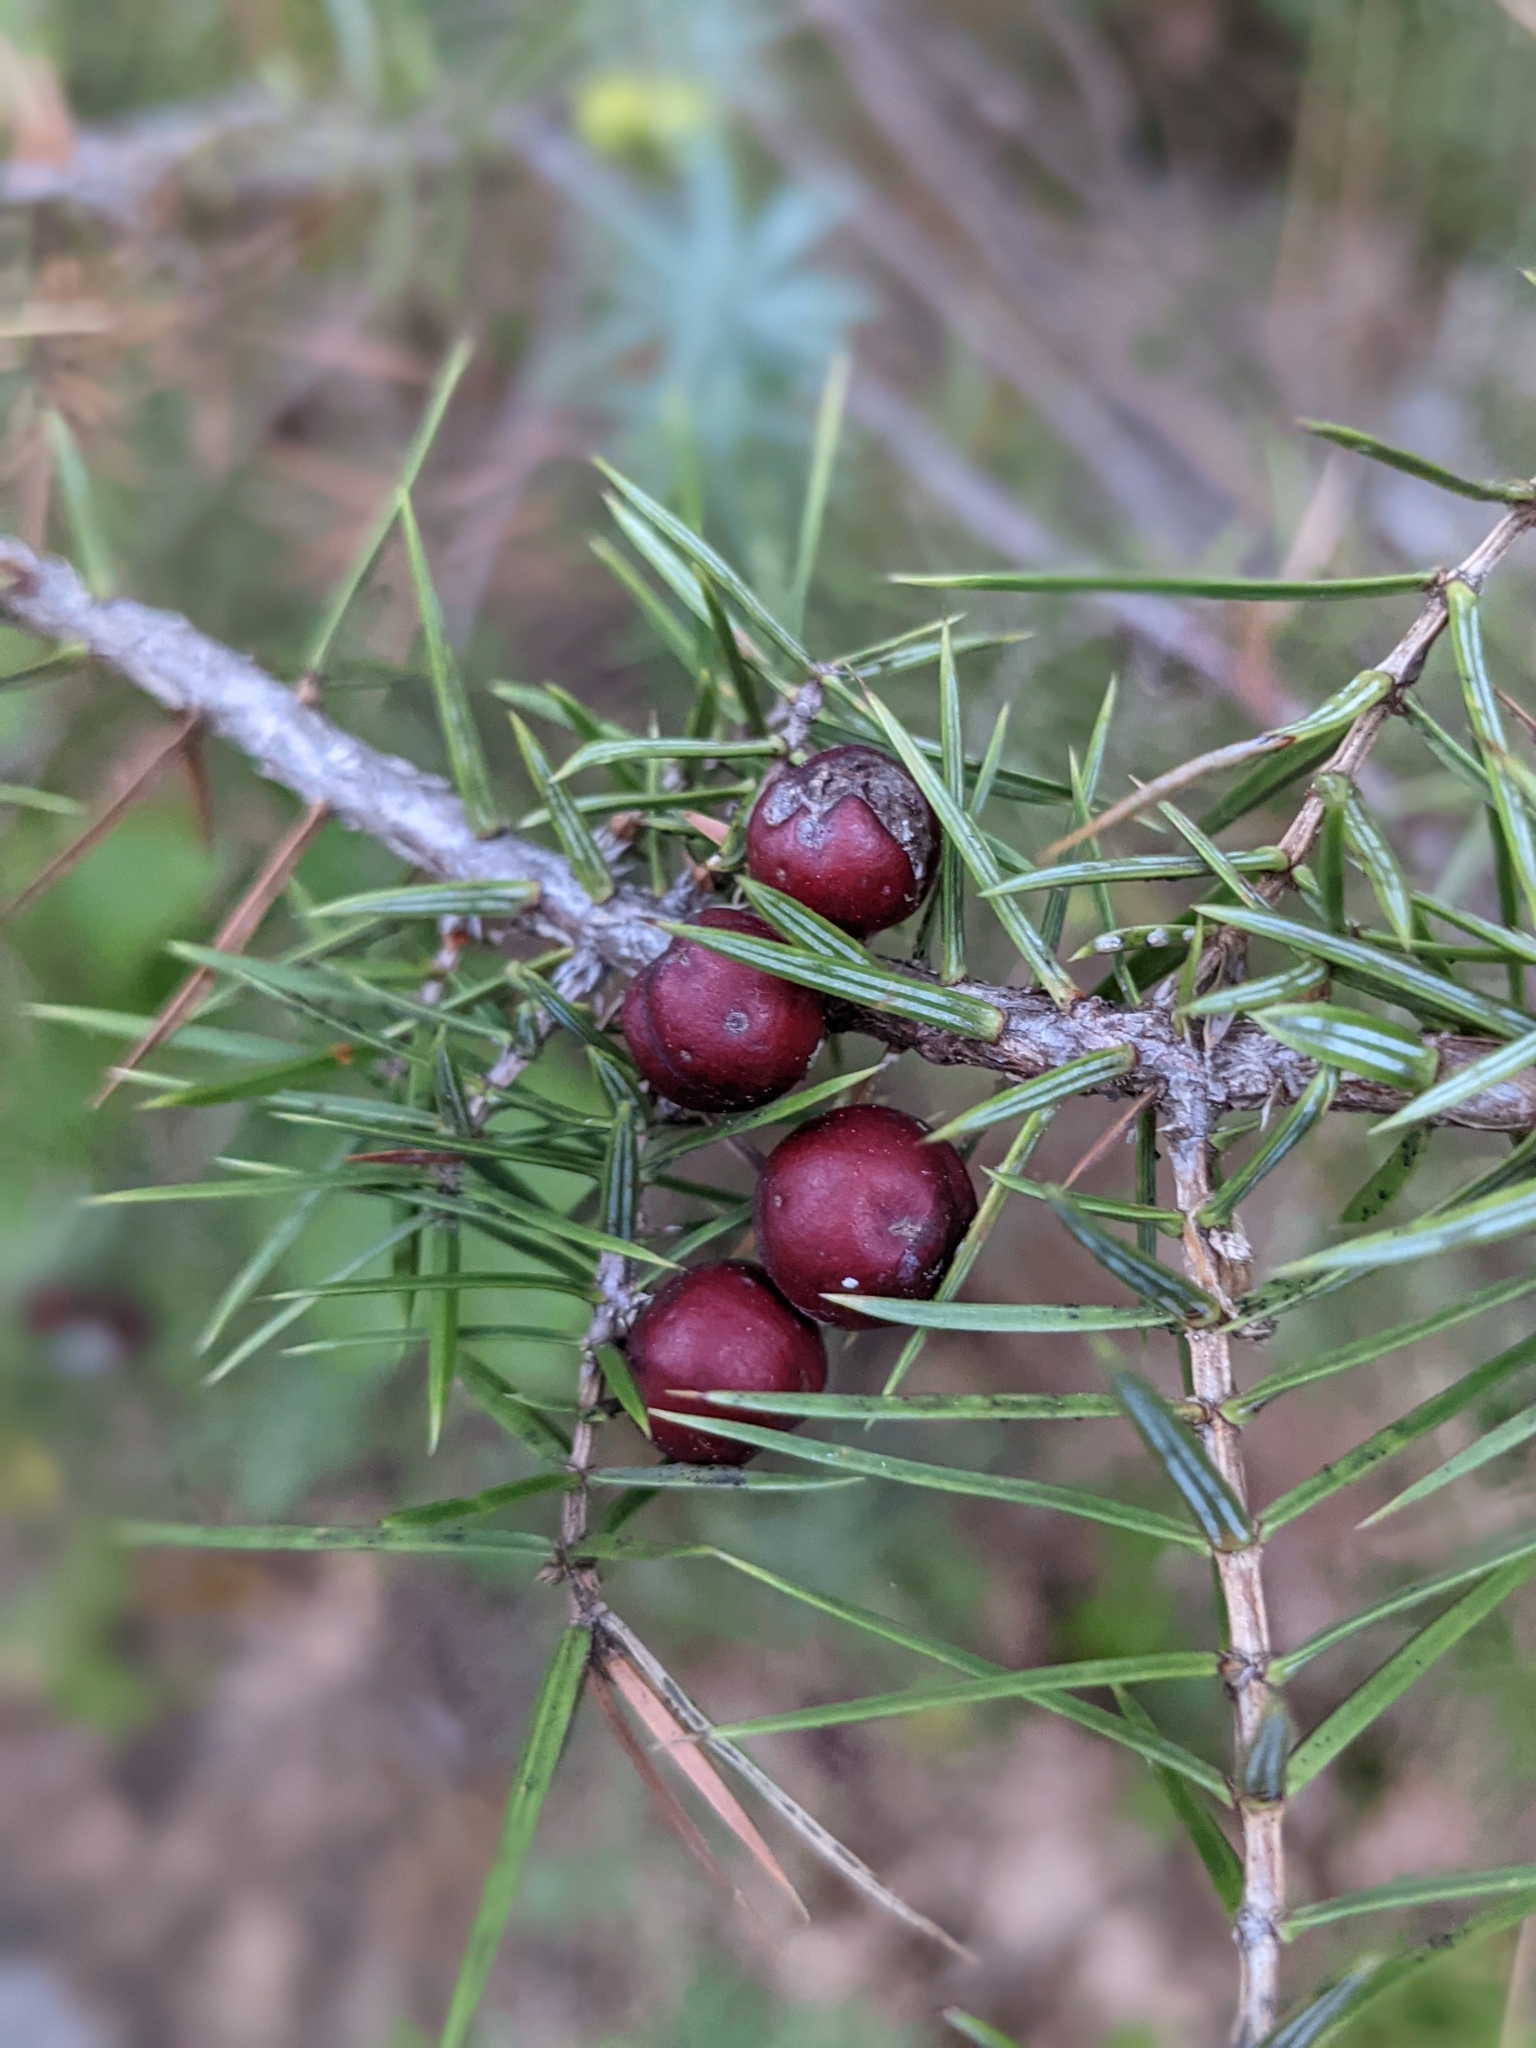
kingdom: Plantae
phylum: Tracheophyta
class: Pinopsida
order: Pinales
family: Cupressaceae
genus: Juniperus
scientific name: Juniperus oxycedrus
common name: Prickly juniper
